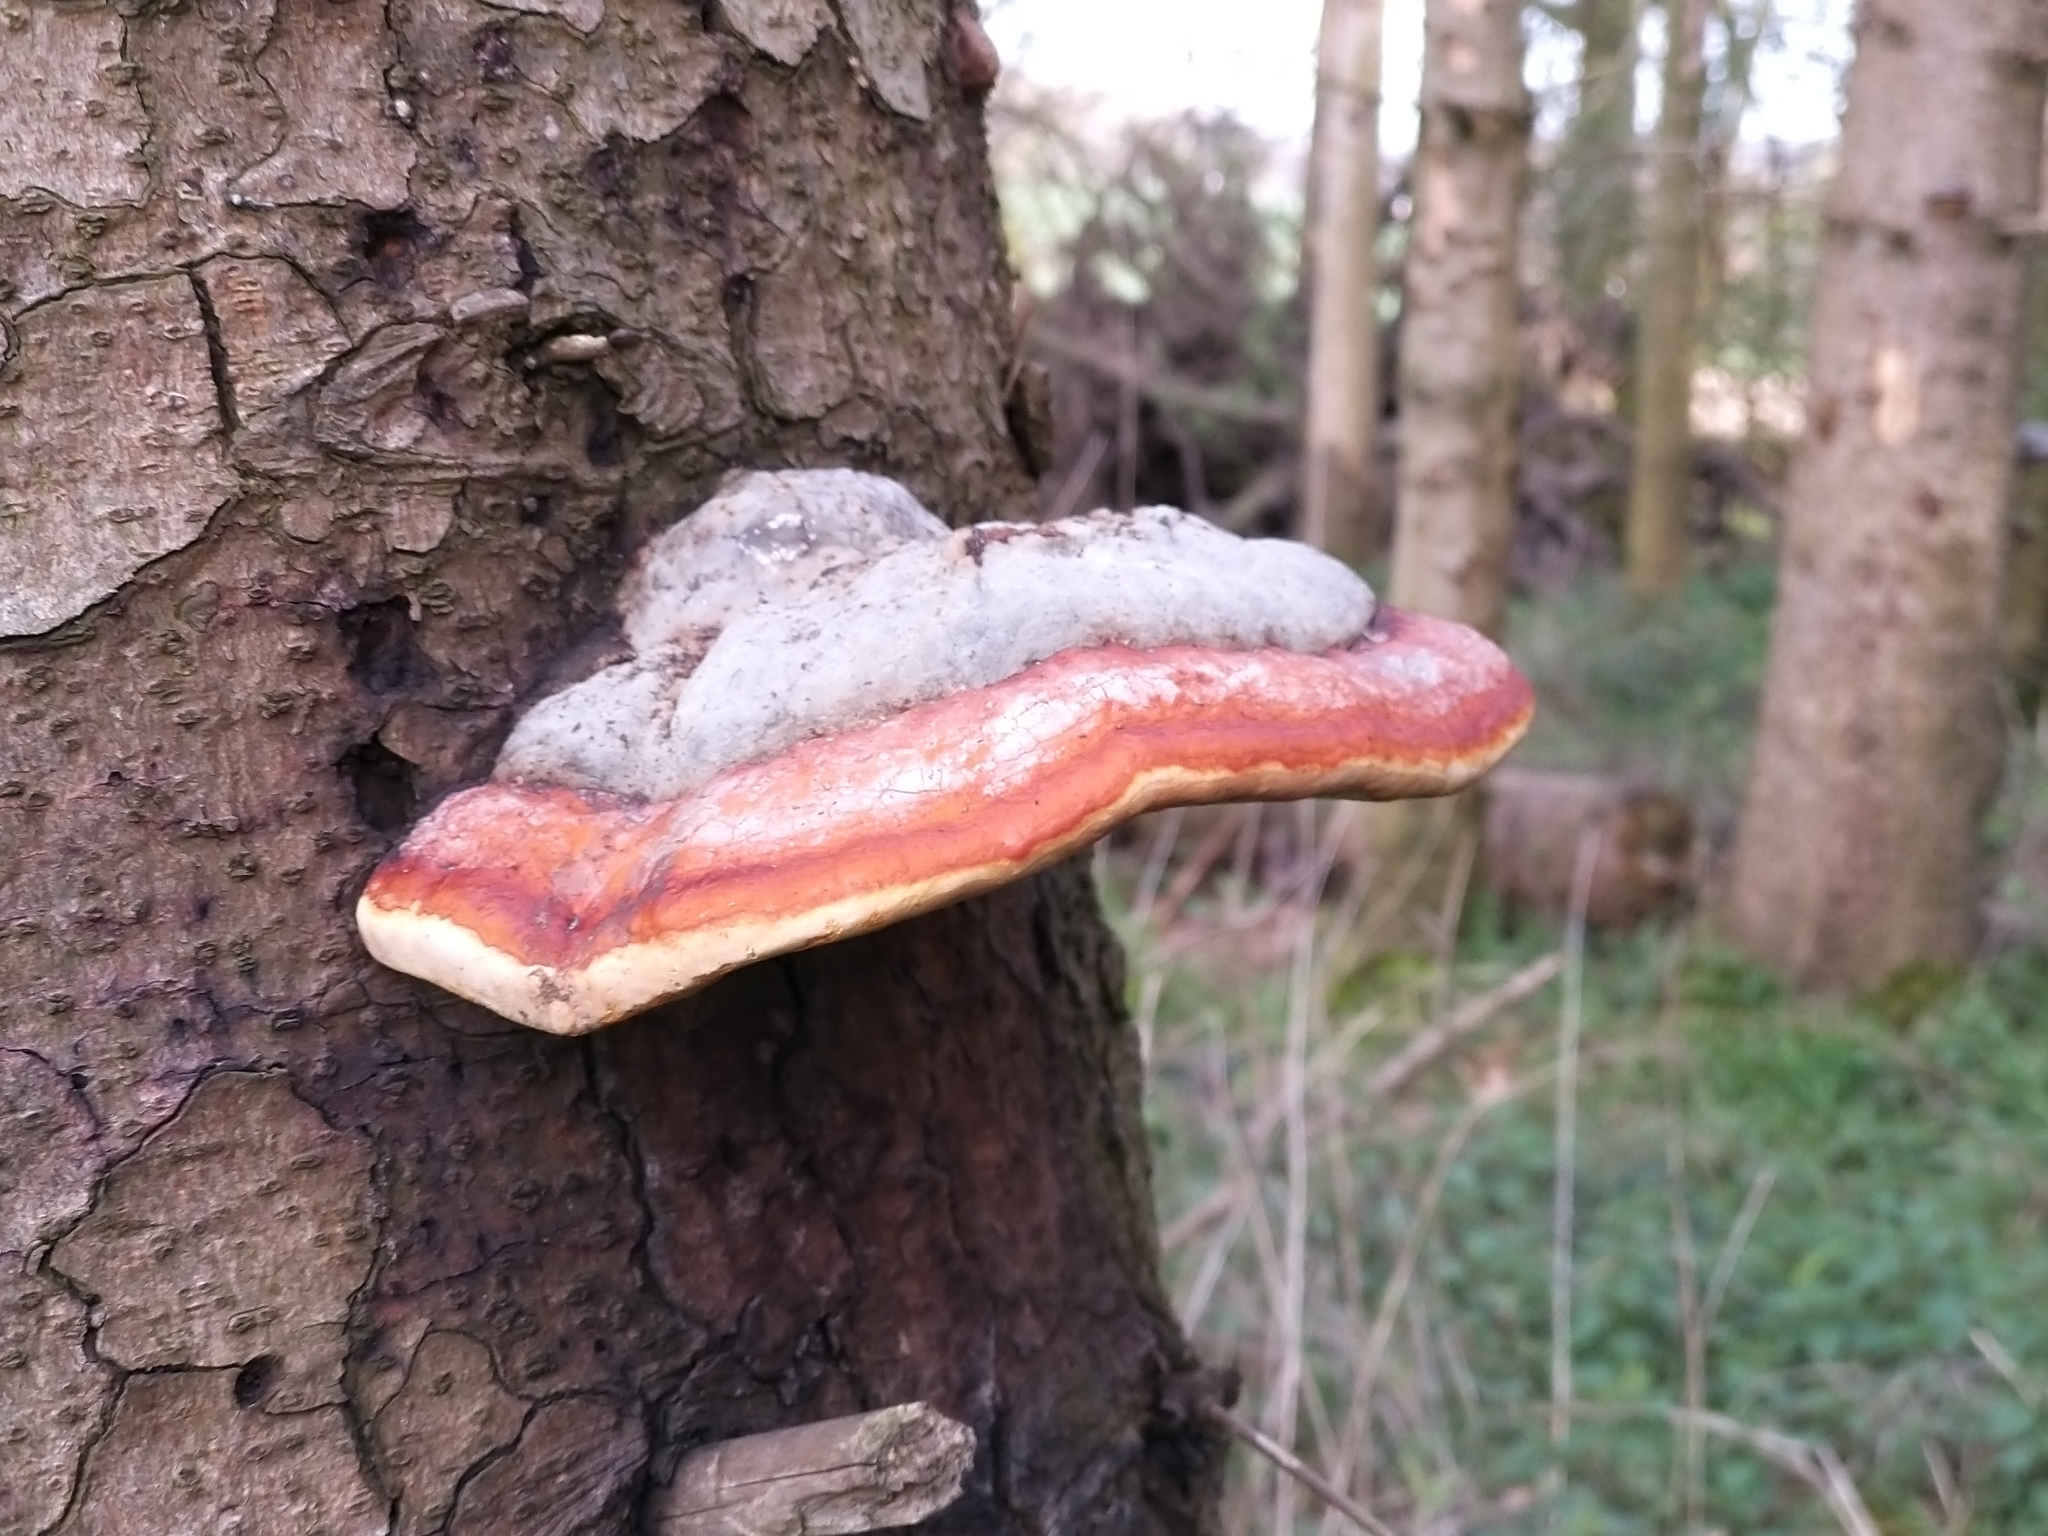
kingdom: Fungi
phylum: Basidiomycota
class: Agaricomycetes
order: Polyporales
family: Fomitopsidaceae
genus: Fomitopsis
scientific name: Fomitopsis pinicola
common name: Red-belted bracket
